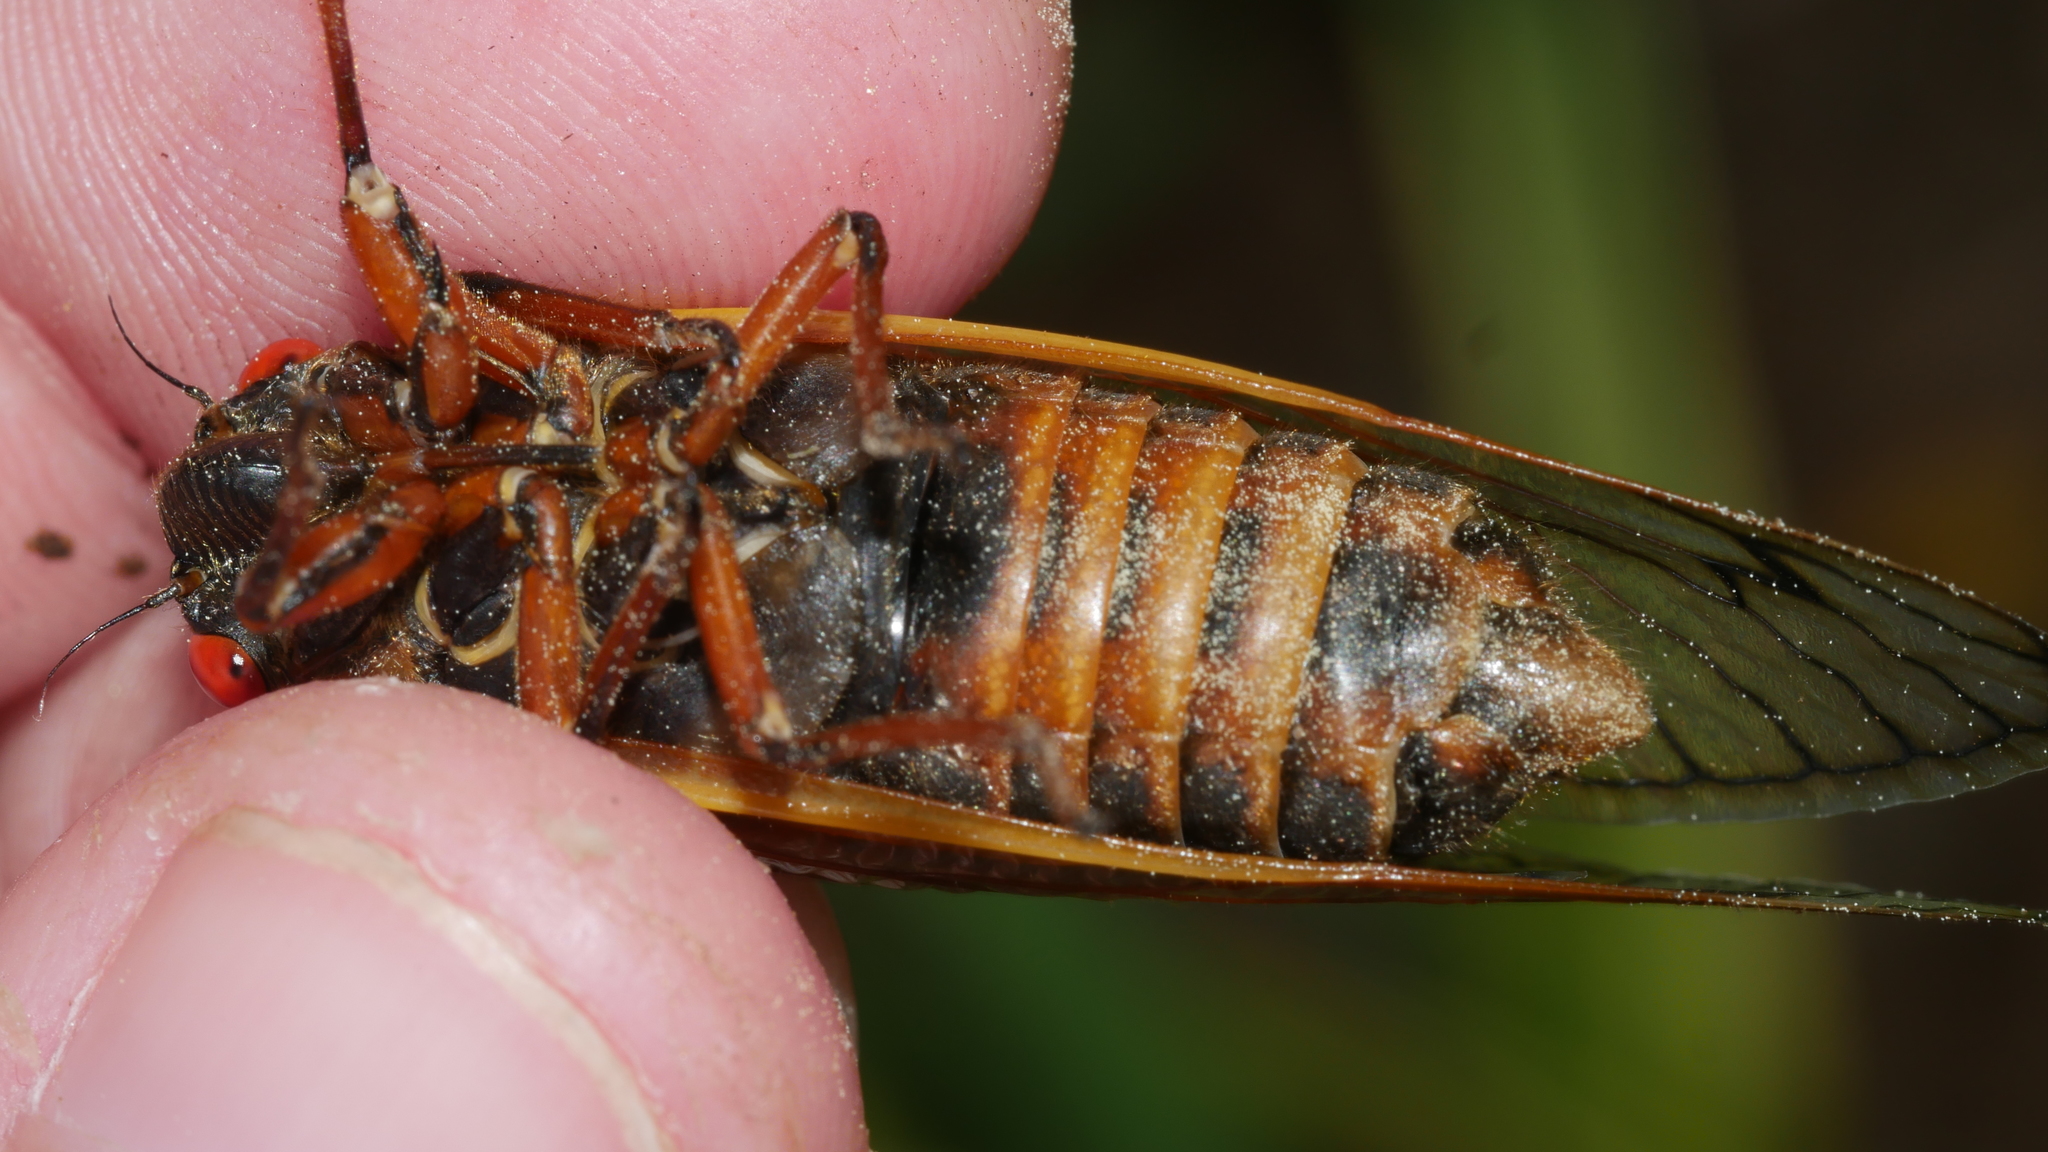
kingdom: Animalia
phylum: Arthropoda
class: Insecta
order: Hemiptera
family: Cicadidae
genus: Magicicada
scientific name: Magicicada septendecim
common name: Periodical cicada
